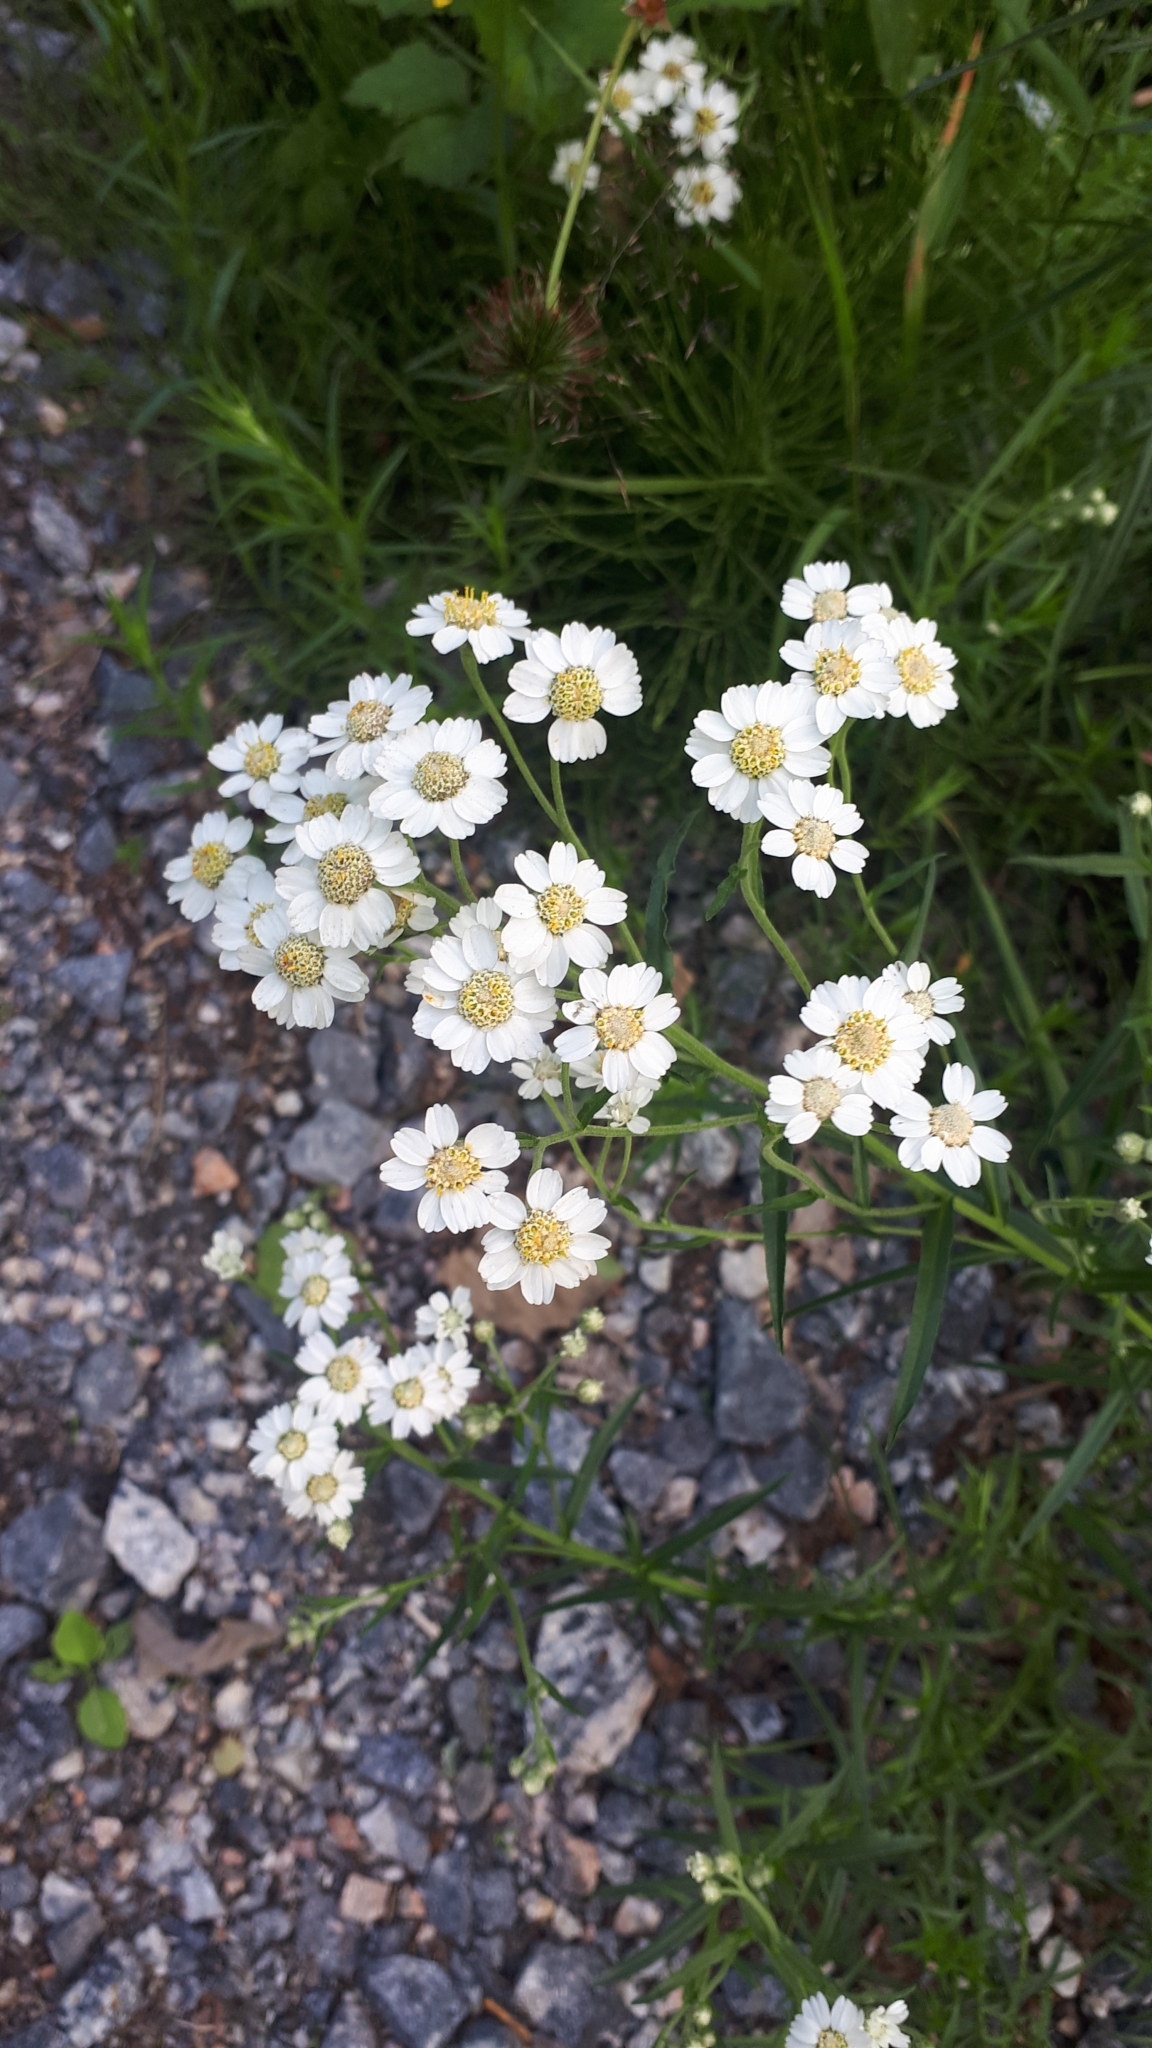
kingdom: Plantae
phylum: Tracheophyta
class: Magnoliopsida
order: Asterales
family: Asteraceae
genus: Achillea
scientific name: Achillea ptarmica
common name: Sneezeweed
